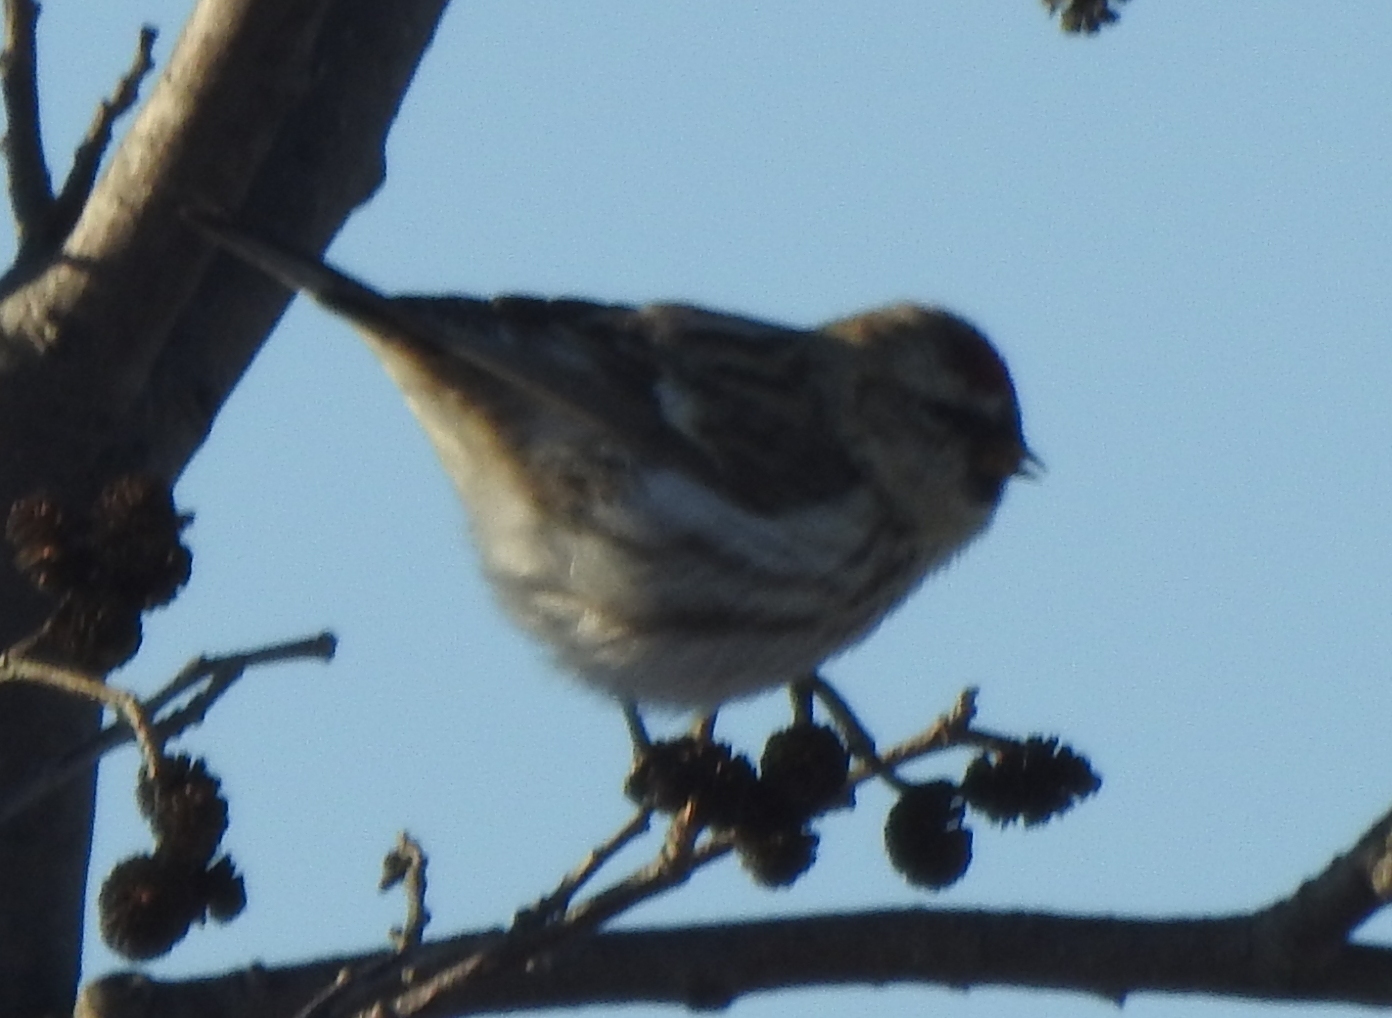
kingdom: Animalia
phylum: Chordata
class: Aves
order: Passeriformes
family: Fringillidae
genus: Acanthis
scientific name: Acanthis flammea
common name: Common redpoll
